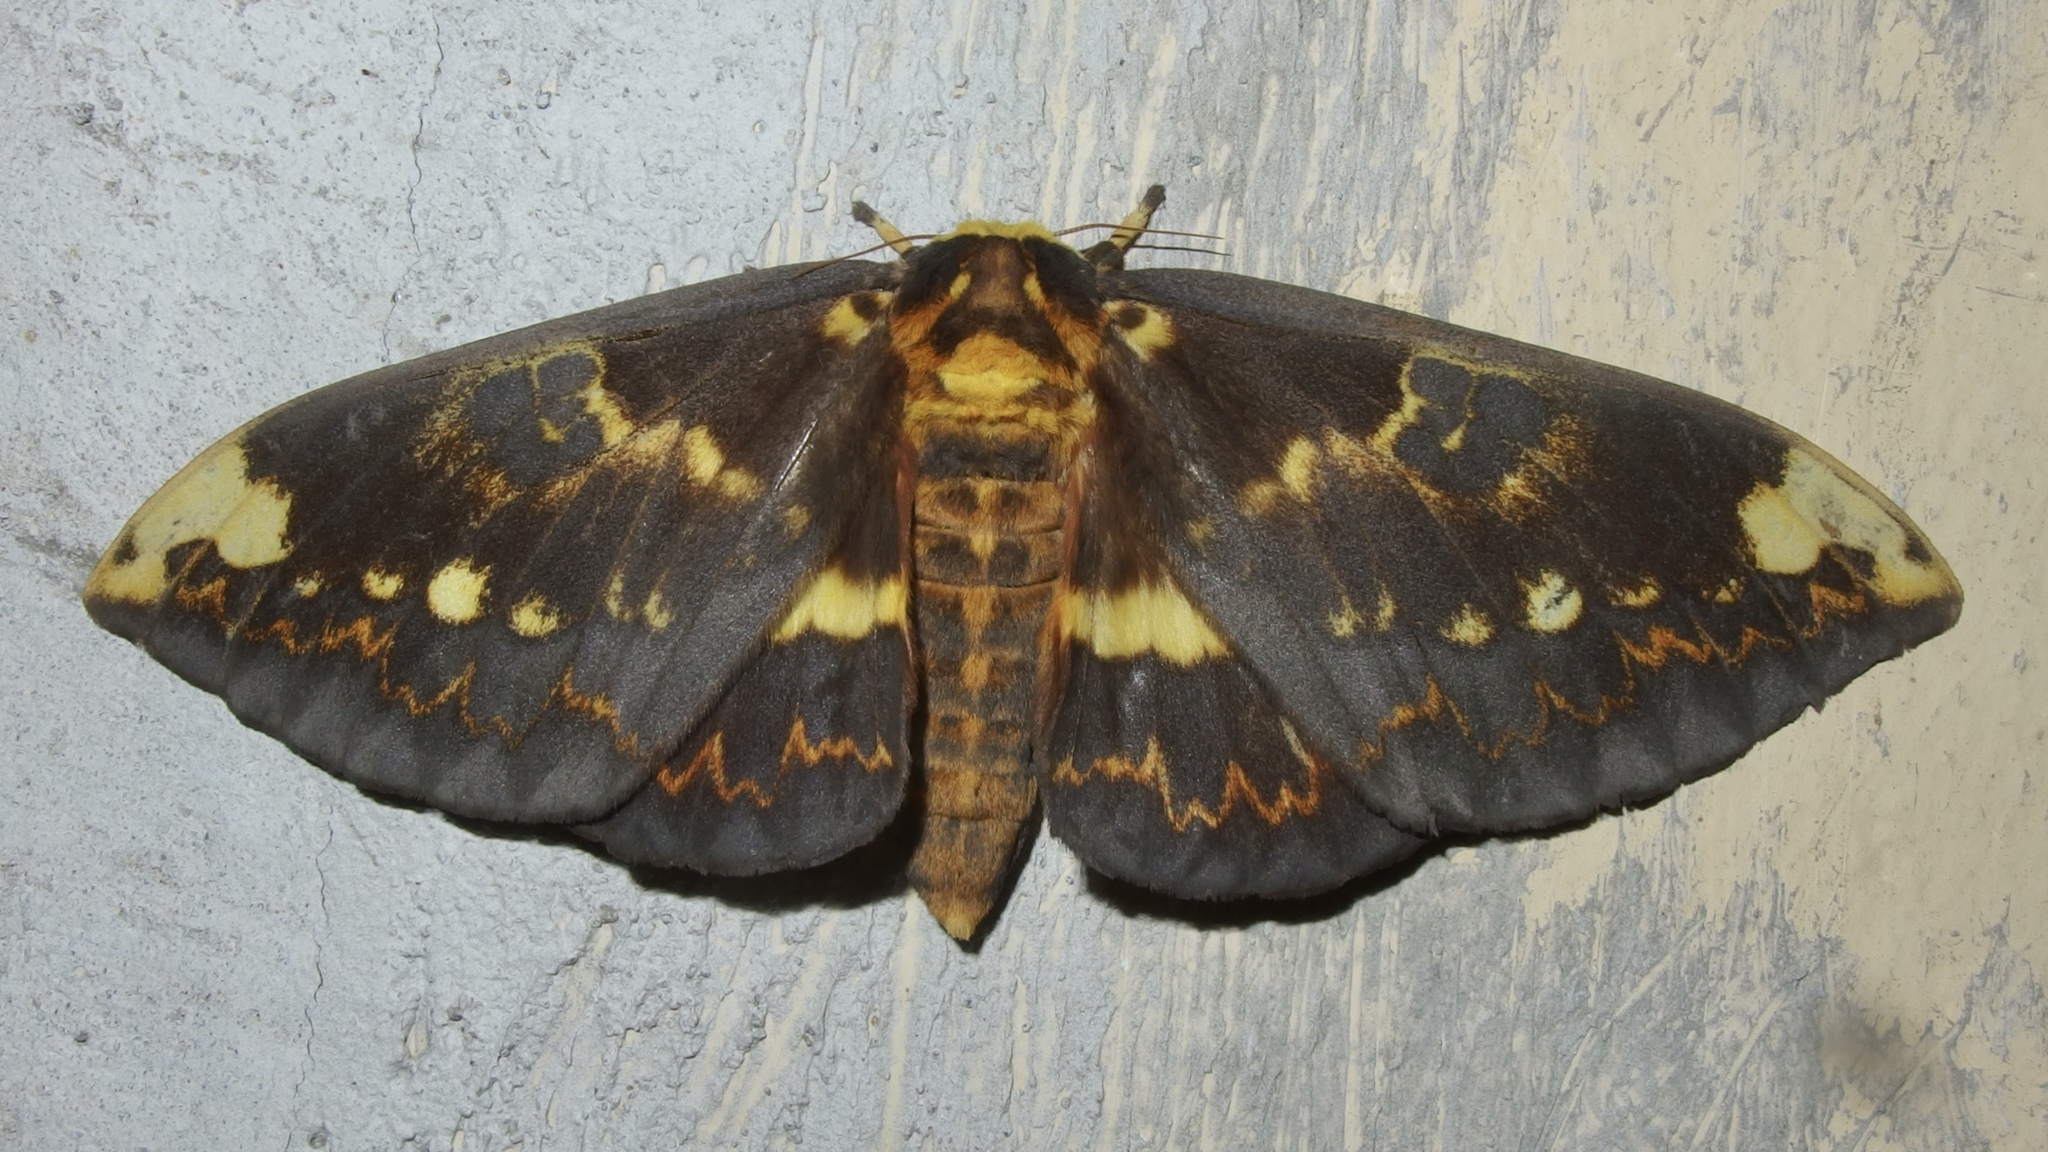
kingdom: Animalia
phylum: Arthropoda
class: Insecta
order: Lepidoptera
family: Saturniidae
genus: Citheronioides
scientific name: Citheronioides collaris
